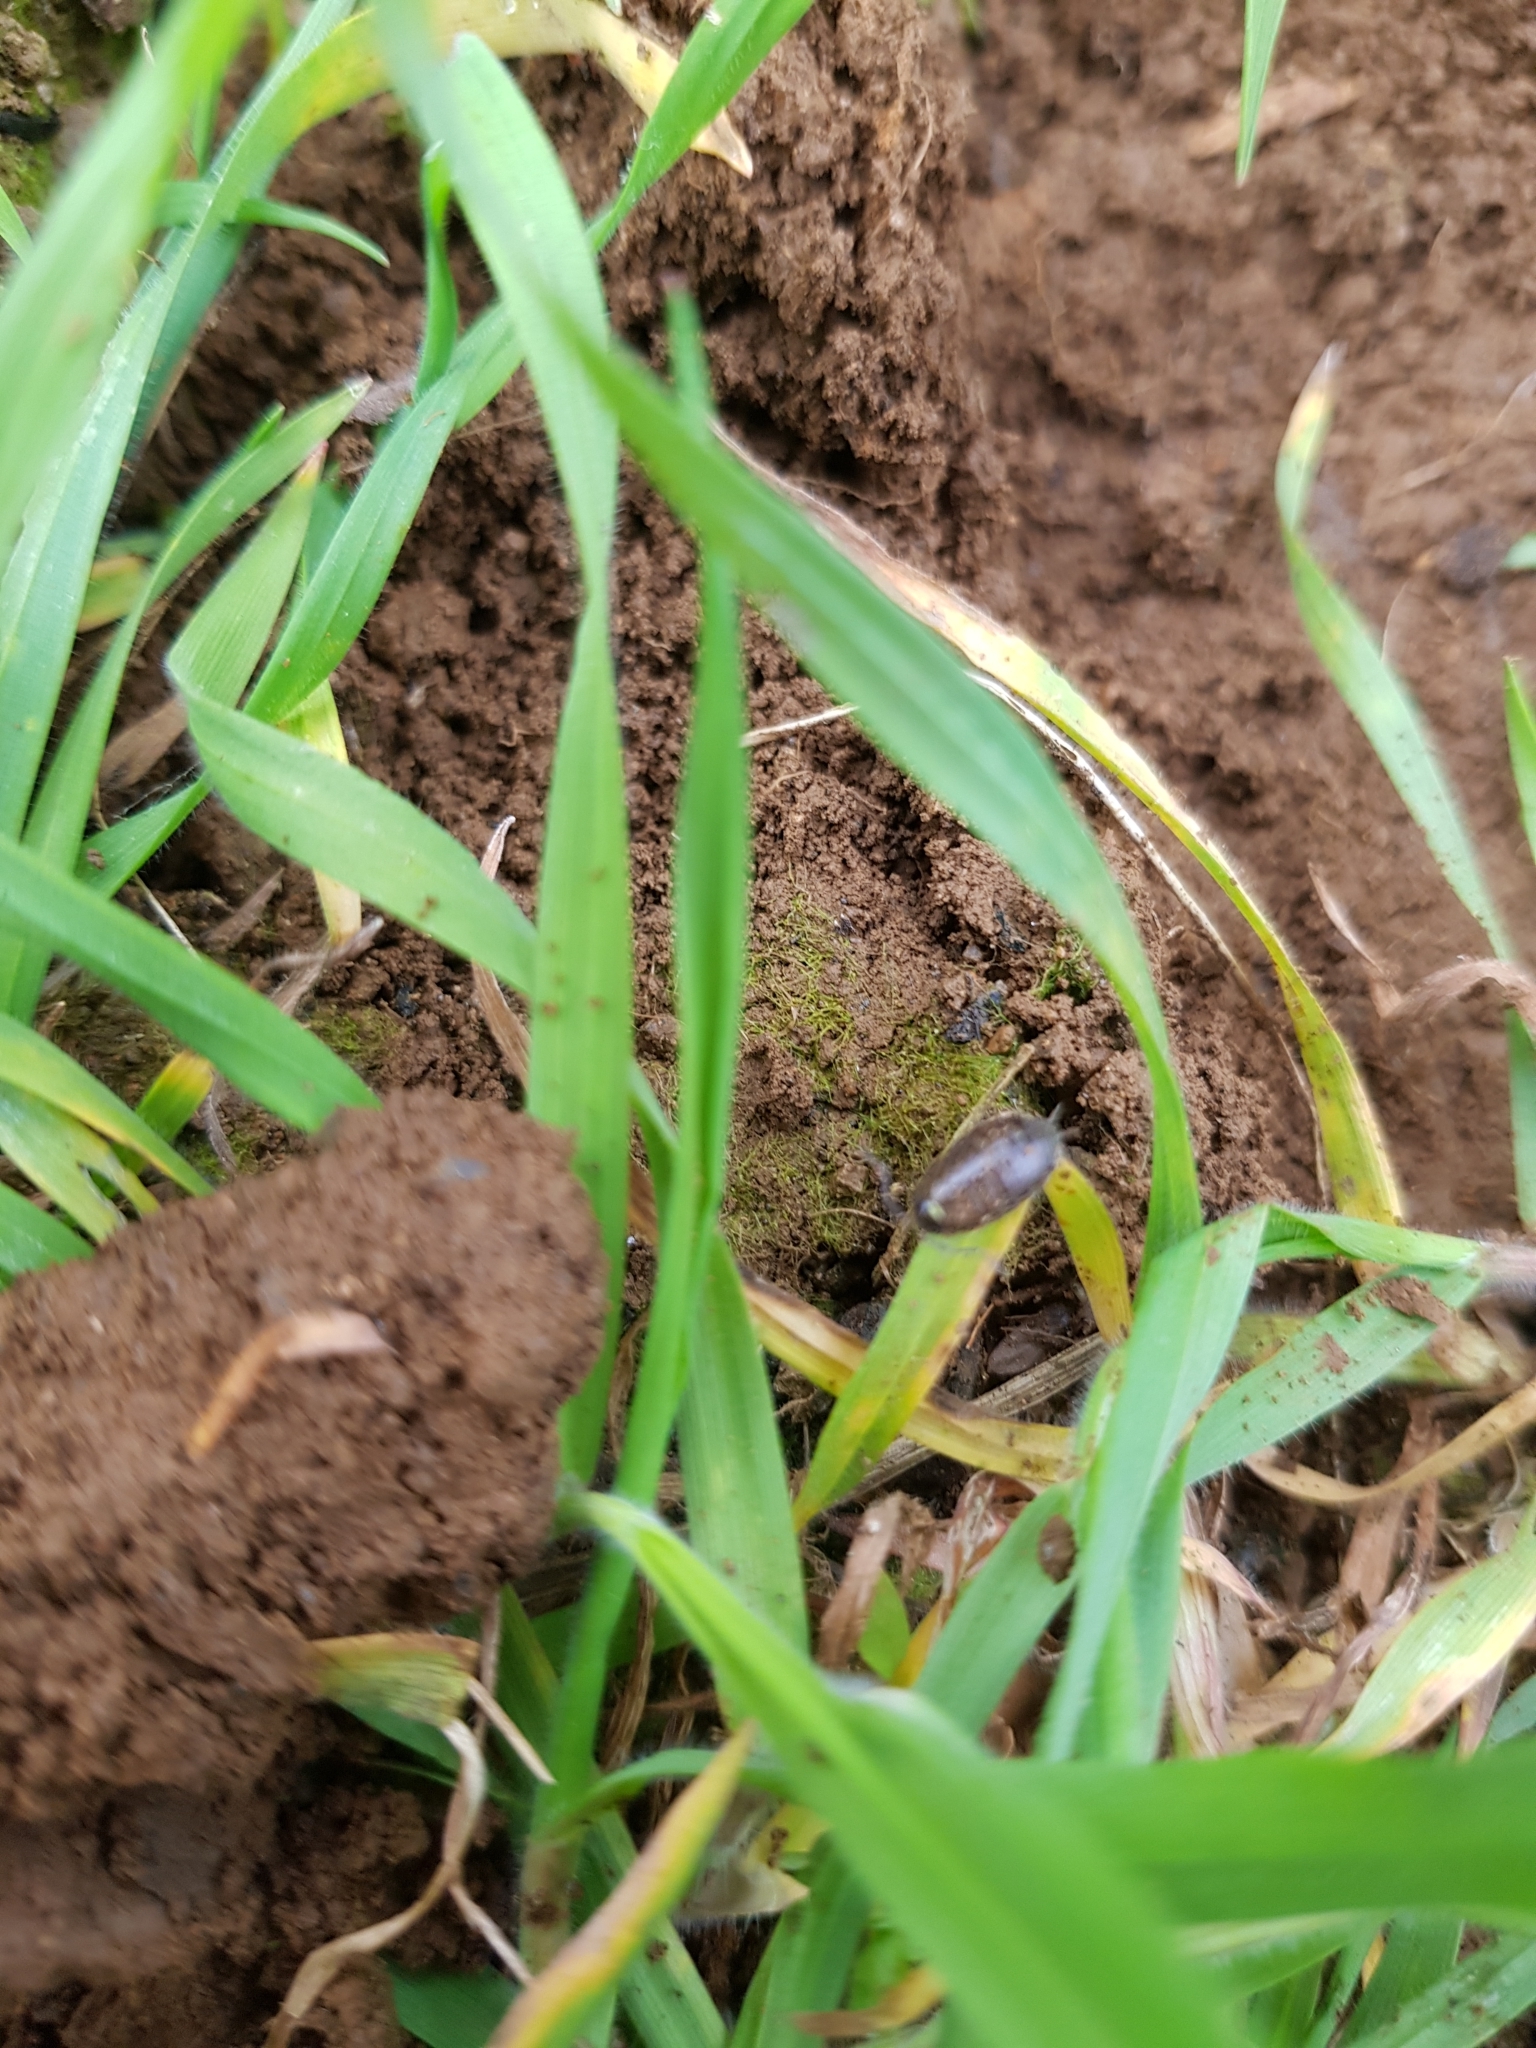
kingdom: Animalia
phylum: Arthropoda
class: Malacostraca
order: Isopoda
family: Philosciidae
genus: Philoscia
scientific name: Philoscia muscorum
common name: Common striped woodlouse
